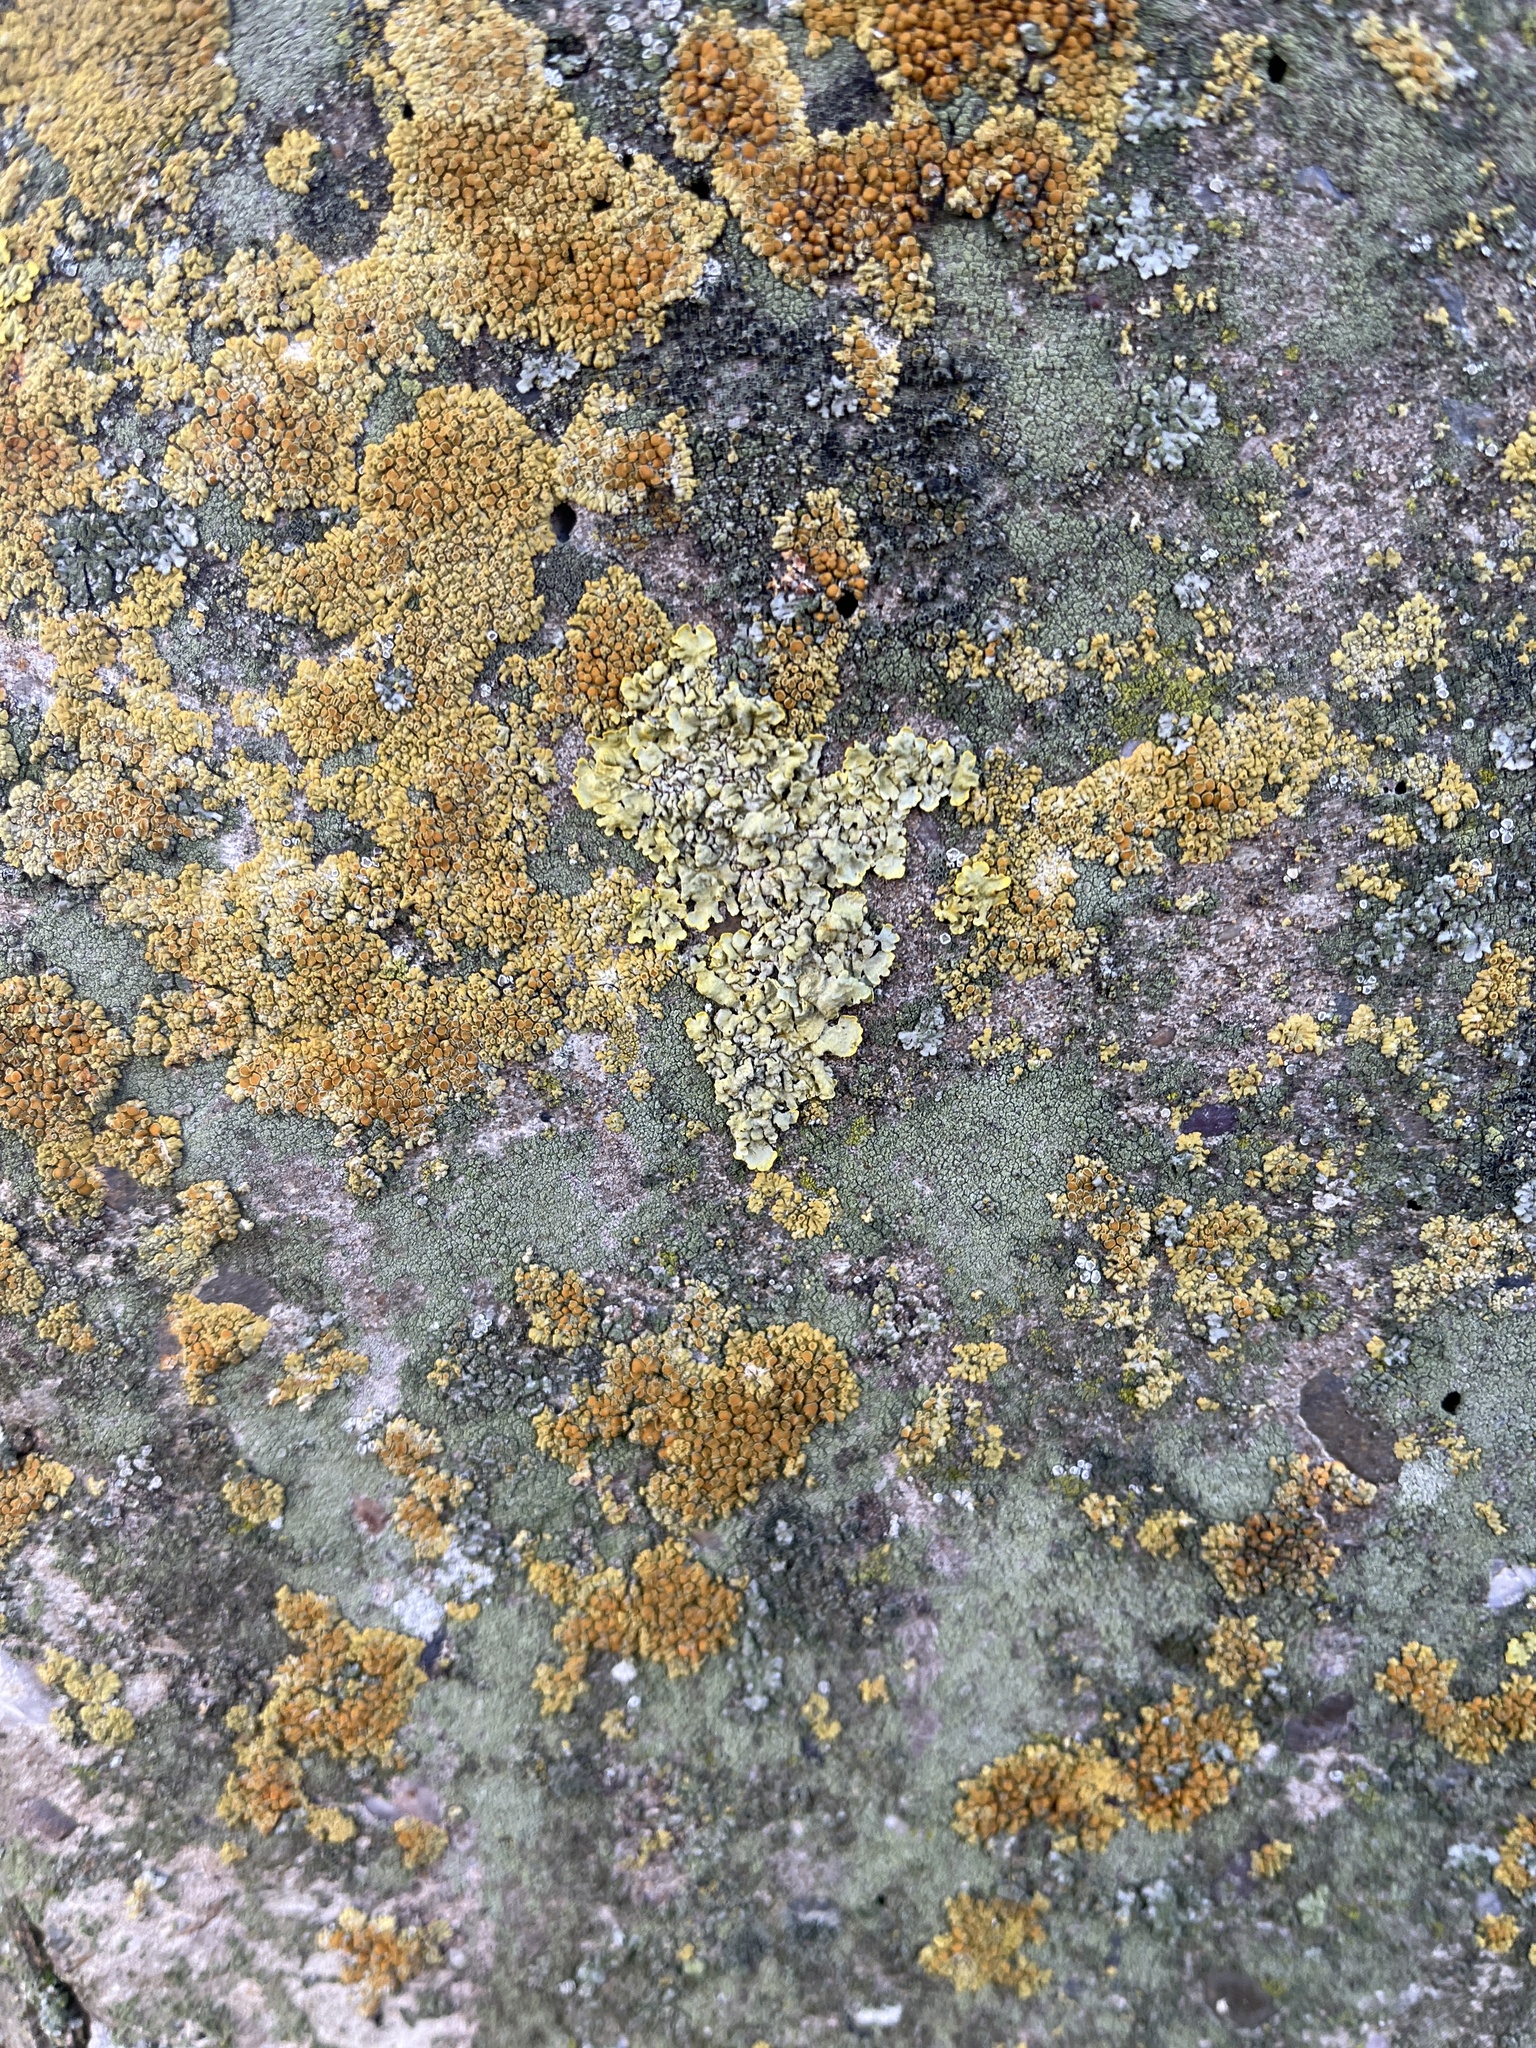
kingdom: Fungi
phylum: Ascomycota
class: Lecanoromycetes
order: Teloschistales
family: Teloschistaceae
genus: Xanthoria
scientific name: Xanthoria parietina
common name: Common orange lichen
